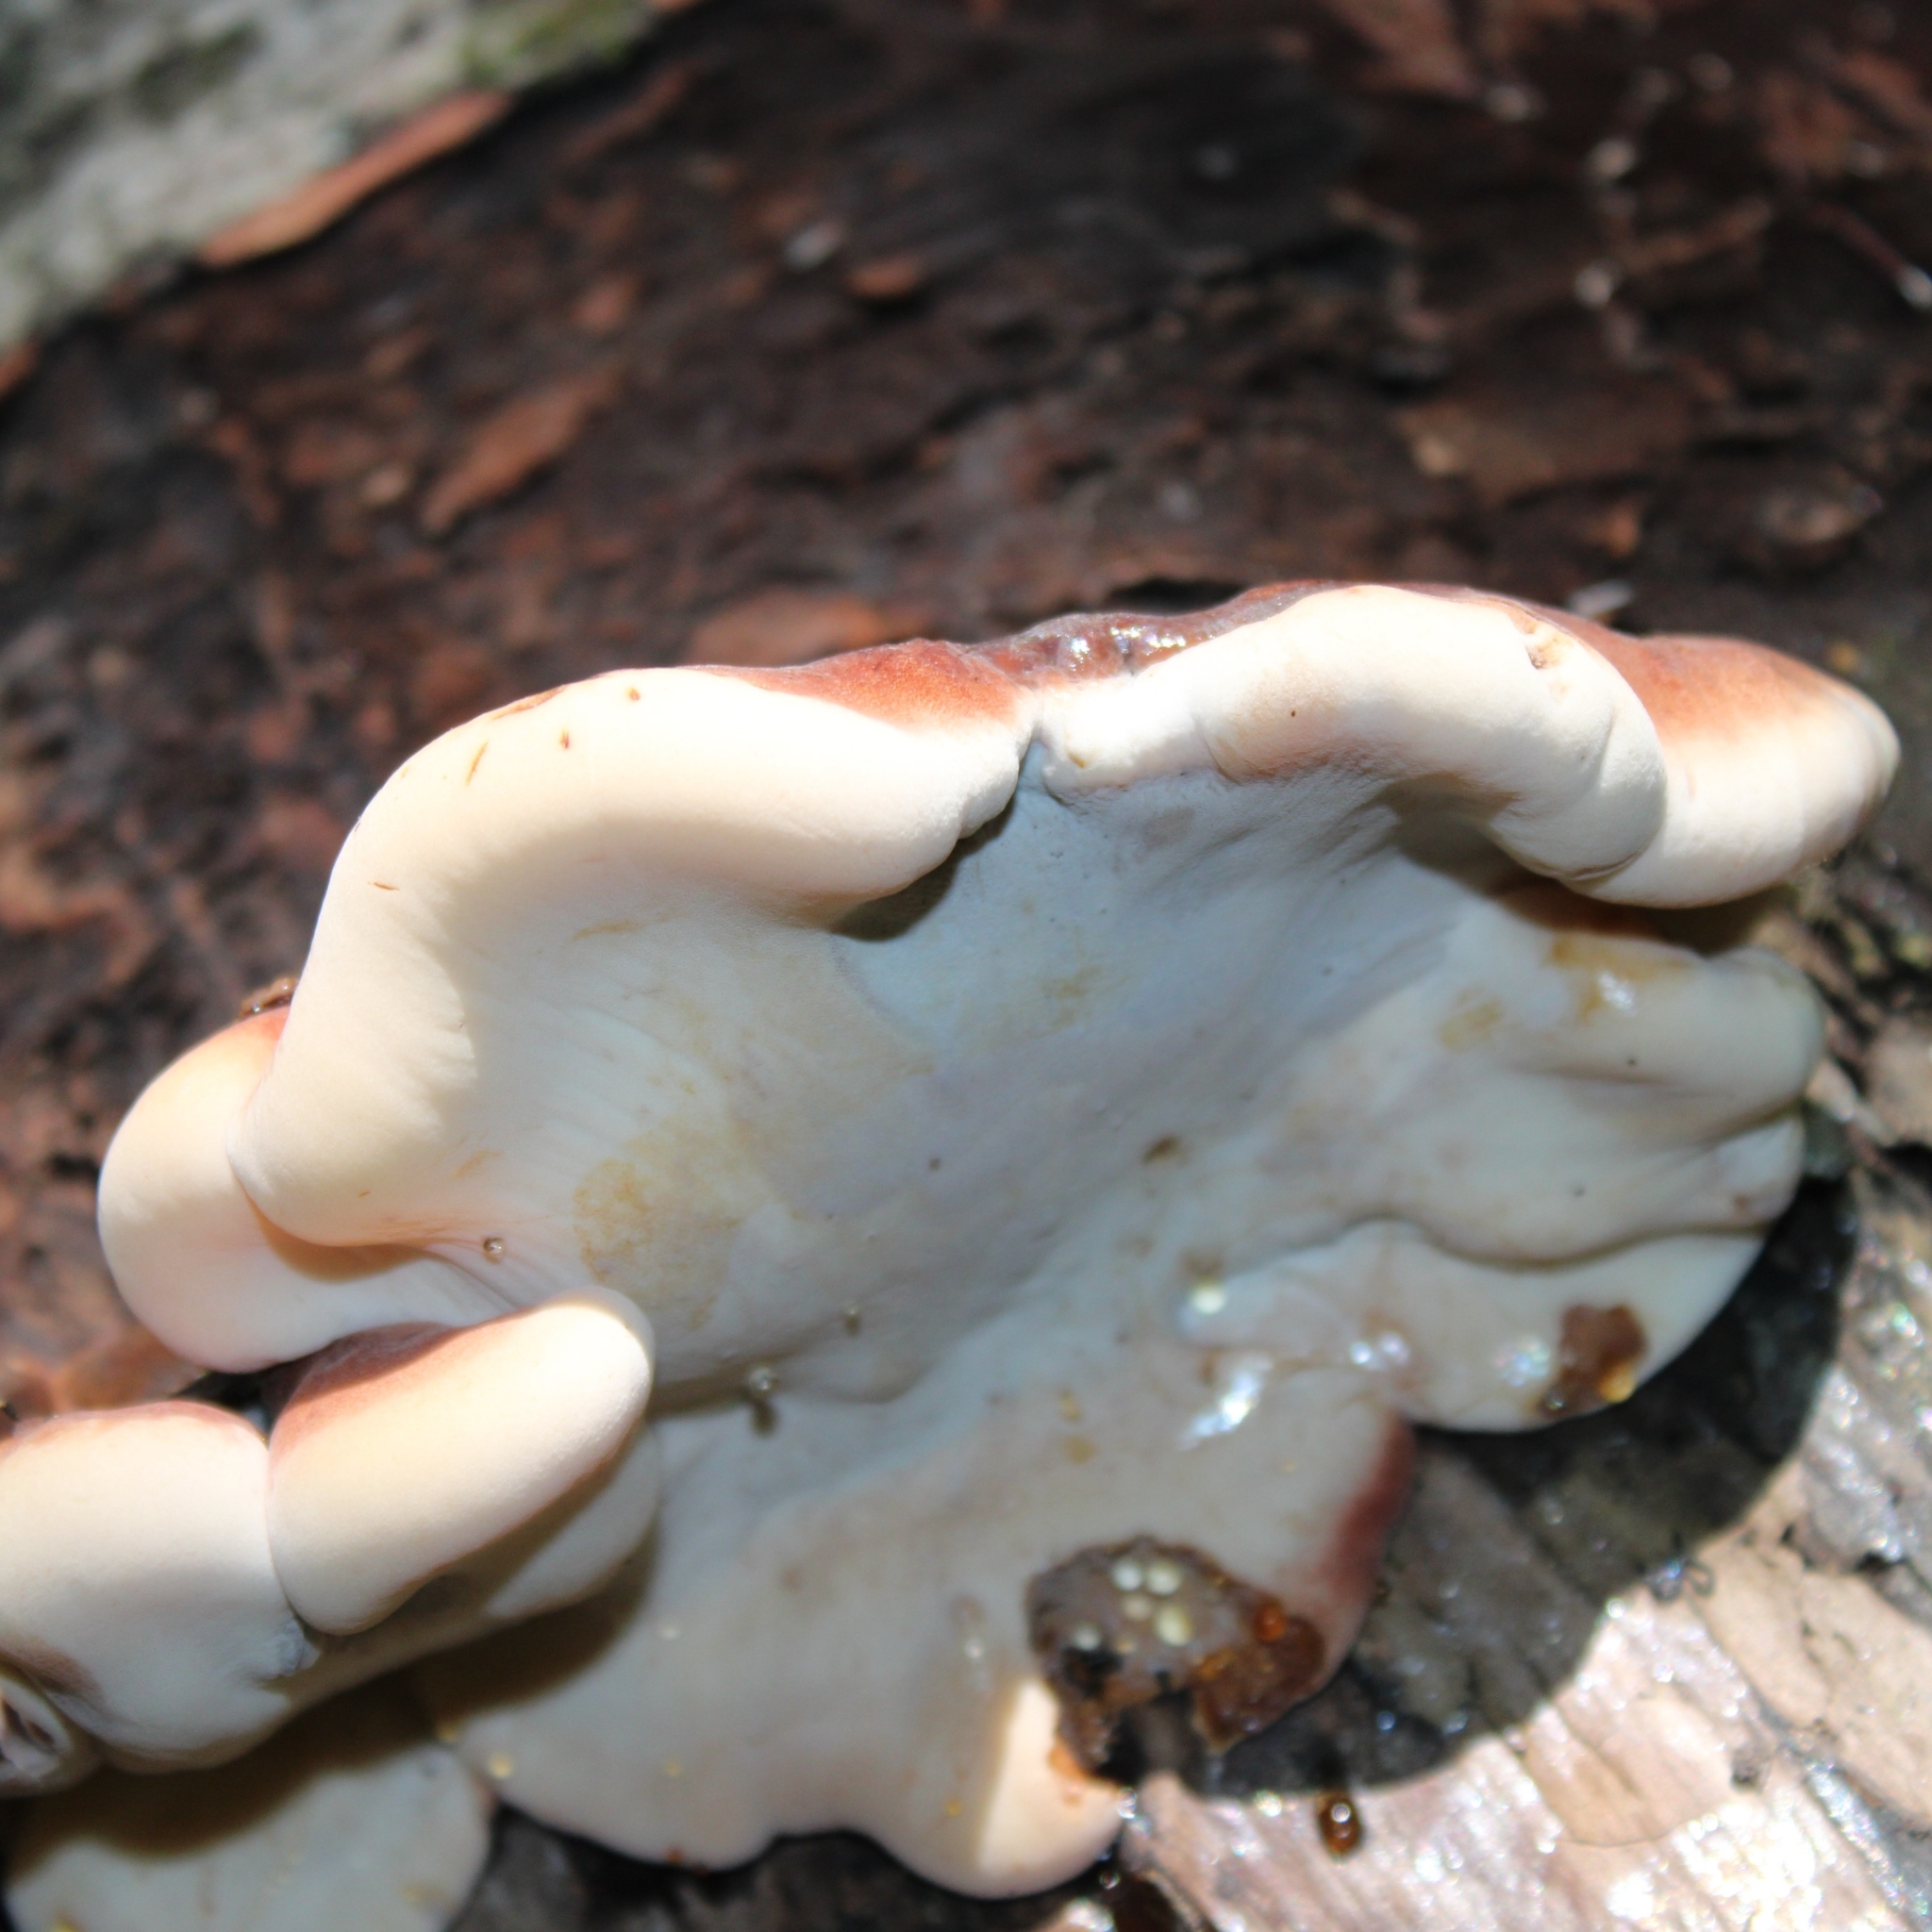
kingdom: Fungi
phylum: Basidiomycota
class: Agaricomycetes
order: Polyporales
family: Ischnodermataceae
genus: Ischnoderma
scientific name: Ischnoderma resinosum
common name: Resinous polypore
